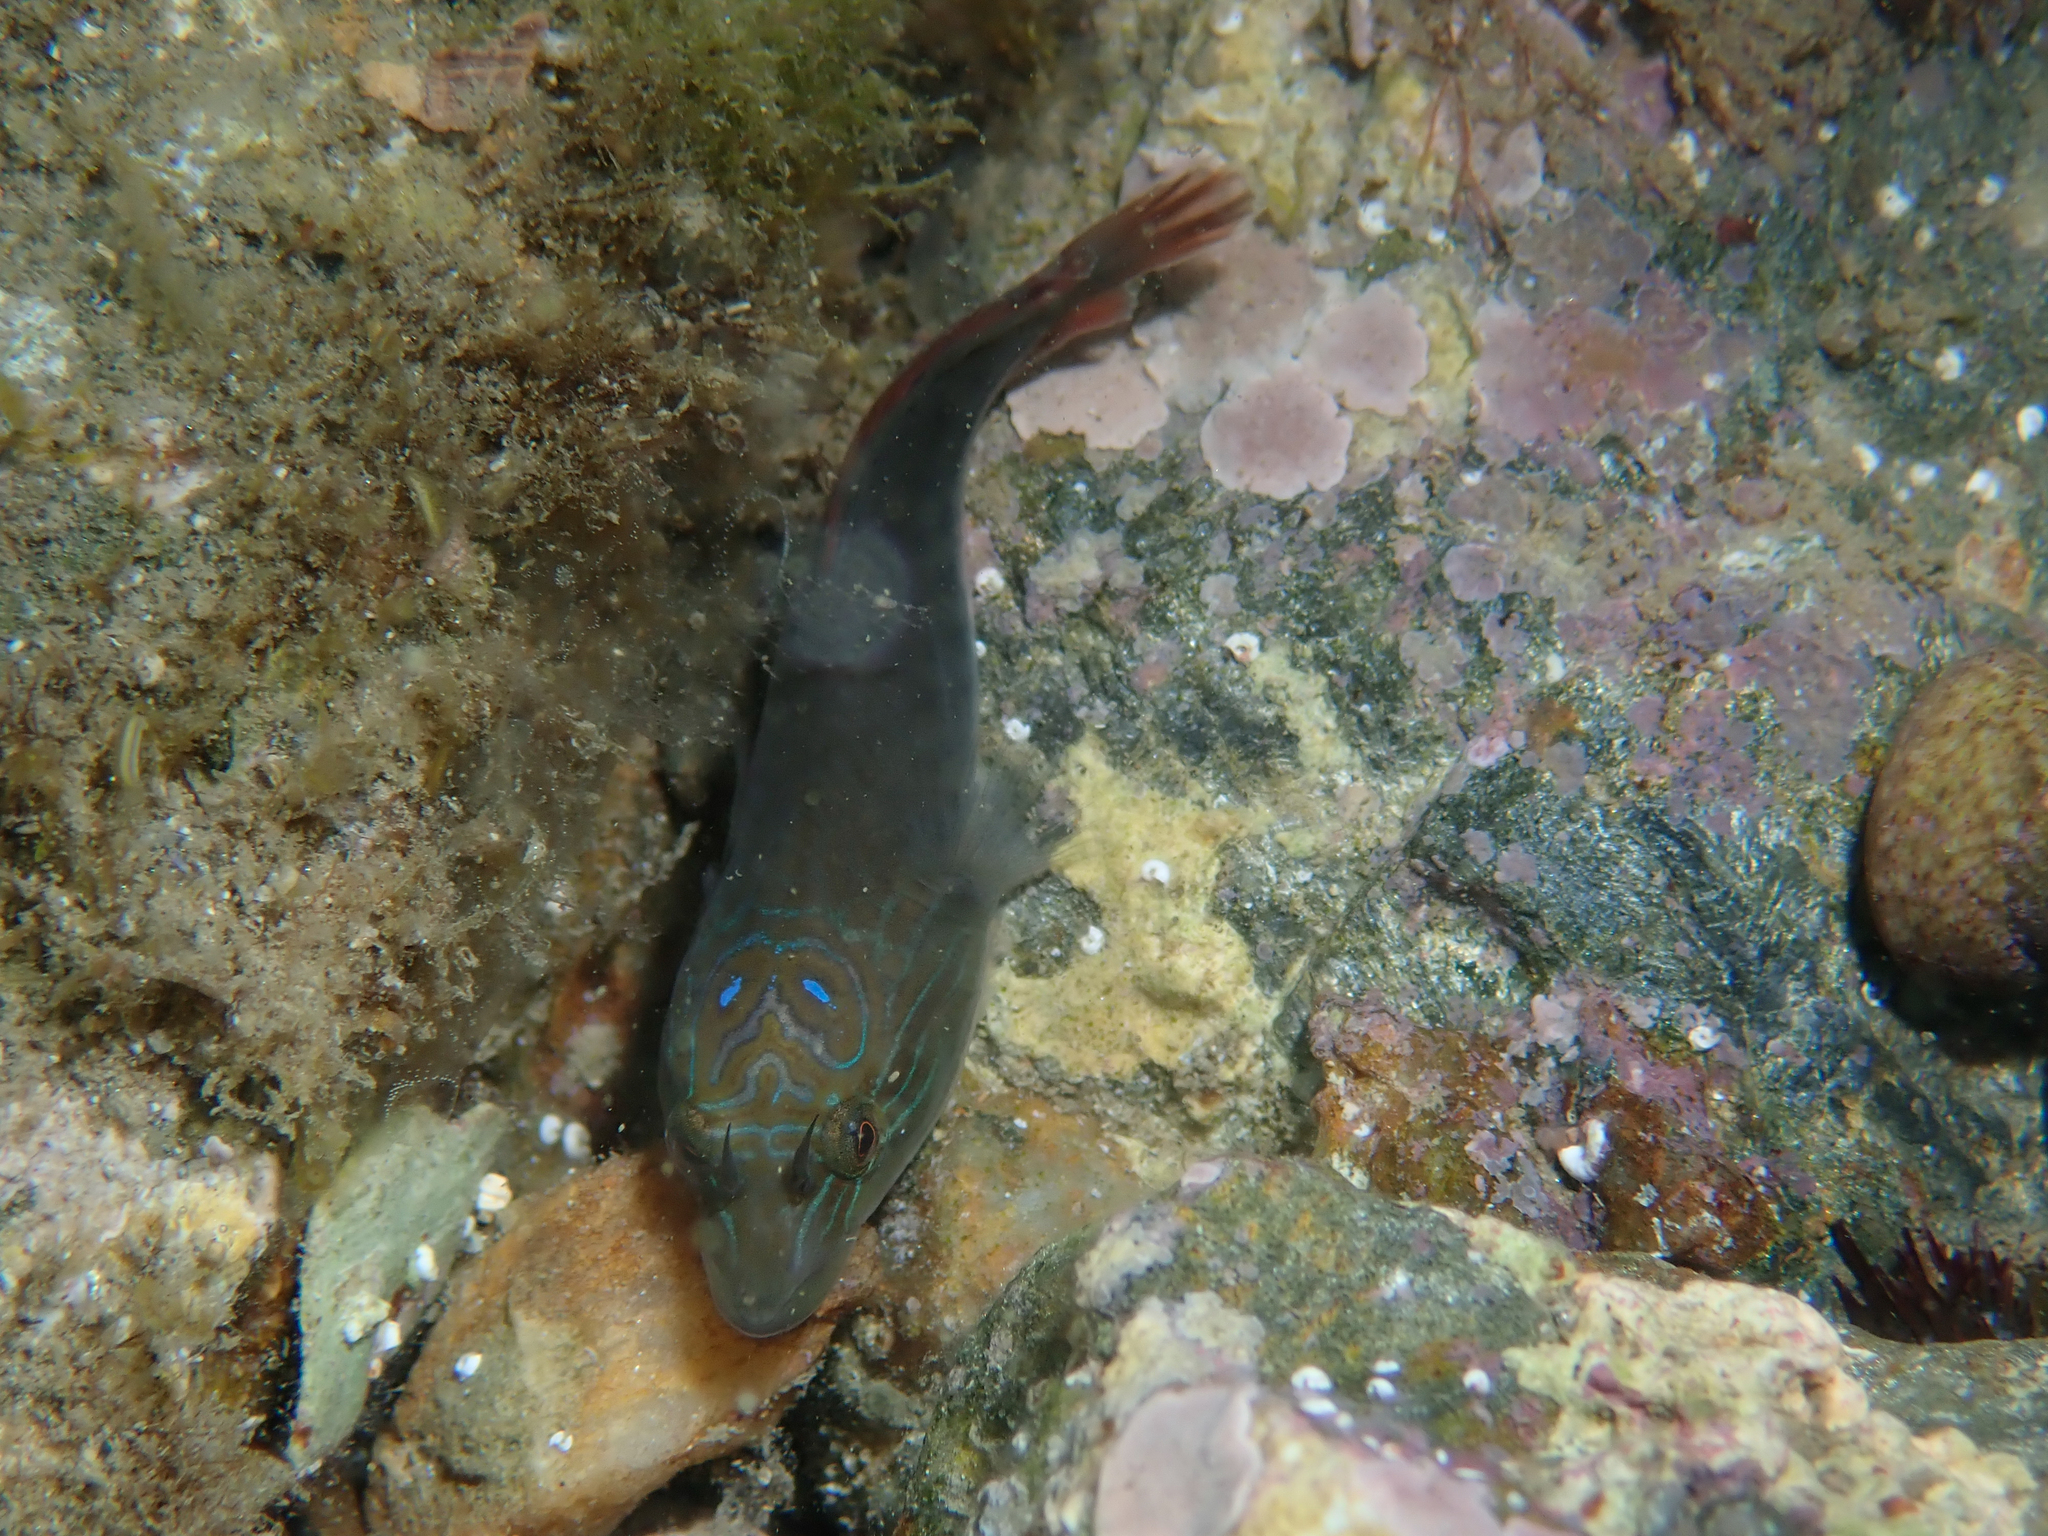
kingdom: Animalia
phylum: Chordata
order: Gobiesociformes
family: Gobiesocidae
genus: Lepadogaster
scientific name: Lepadogaster lepadogaster
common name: Cornish sucker
